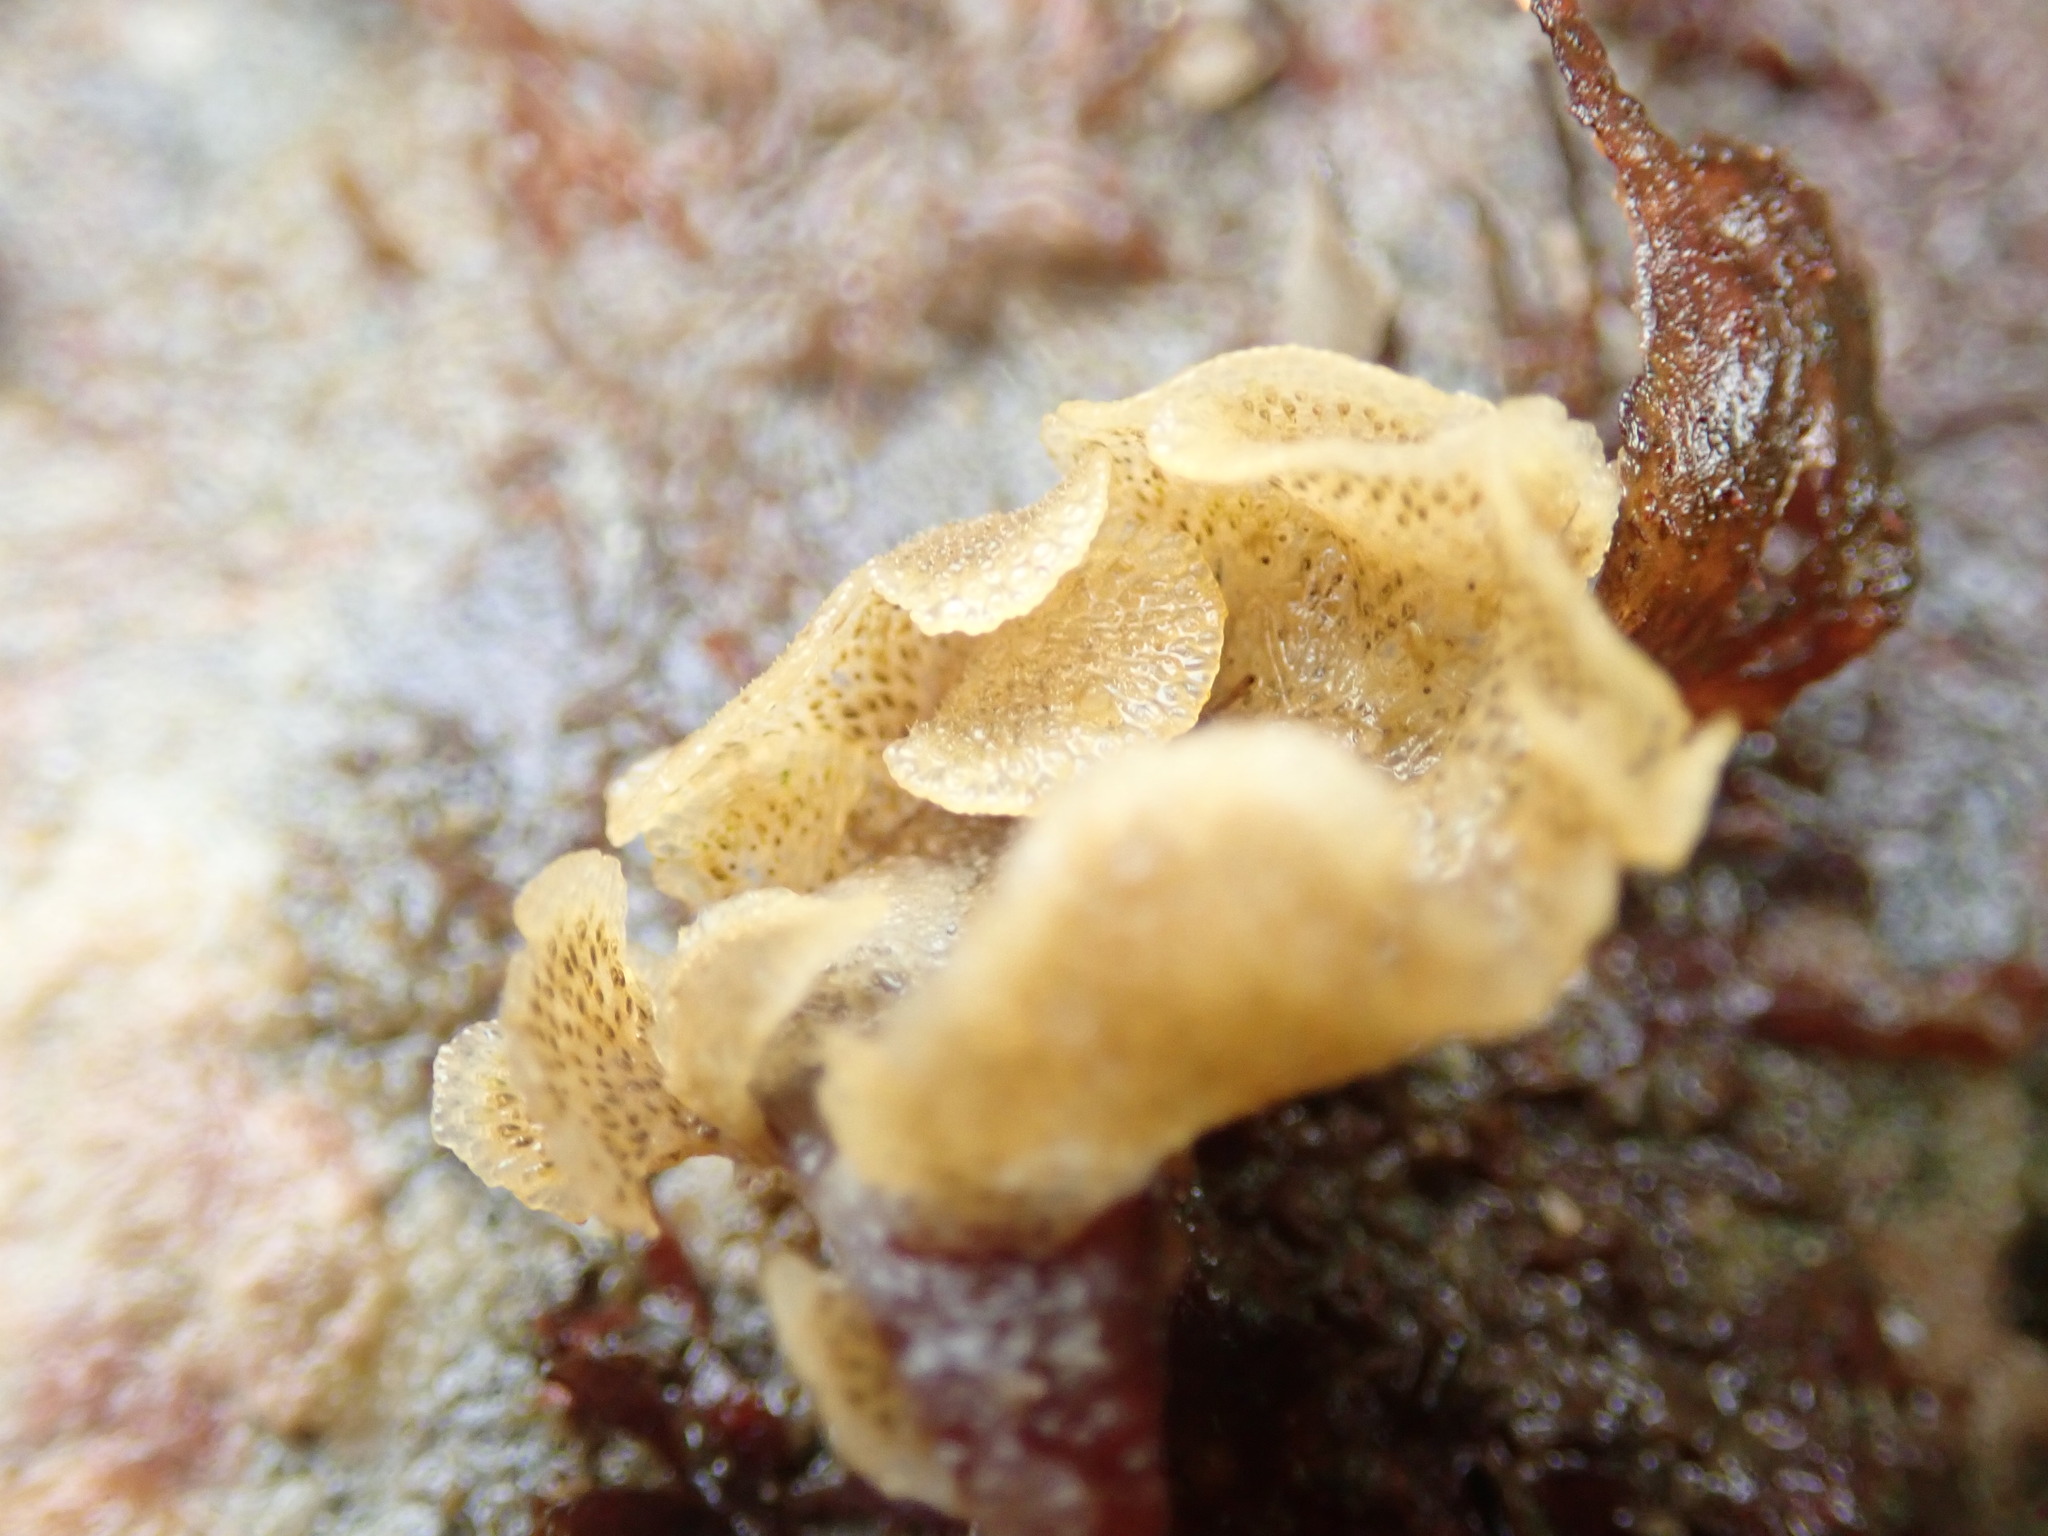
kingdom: Animalia
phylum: Bryozoa
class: Gymnolaemata
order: Cheilostomatida
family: Bugulidae
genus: Dendrobeania
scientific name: Dendrobeania lichenoides
